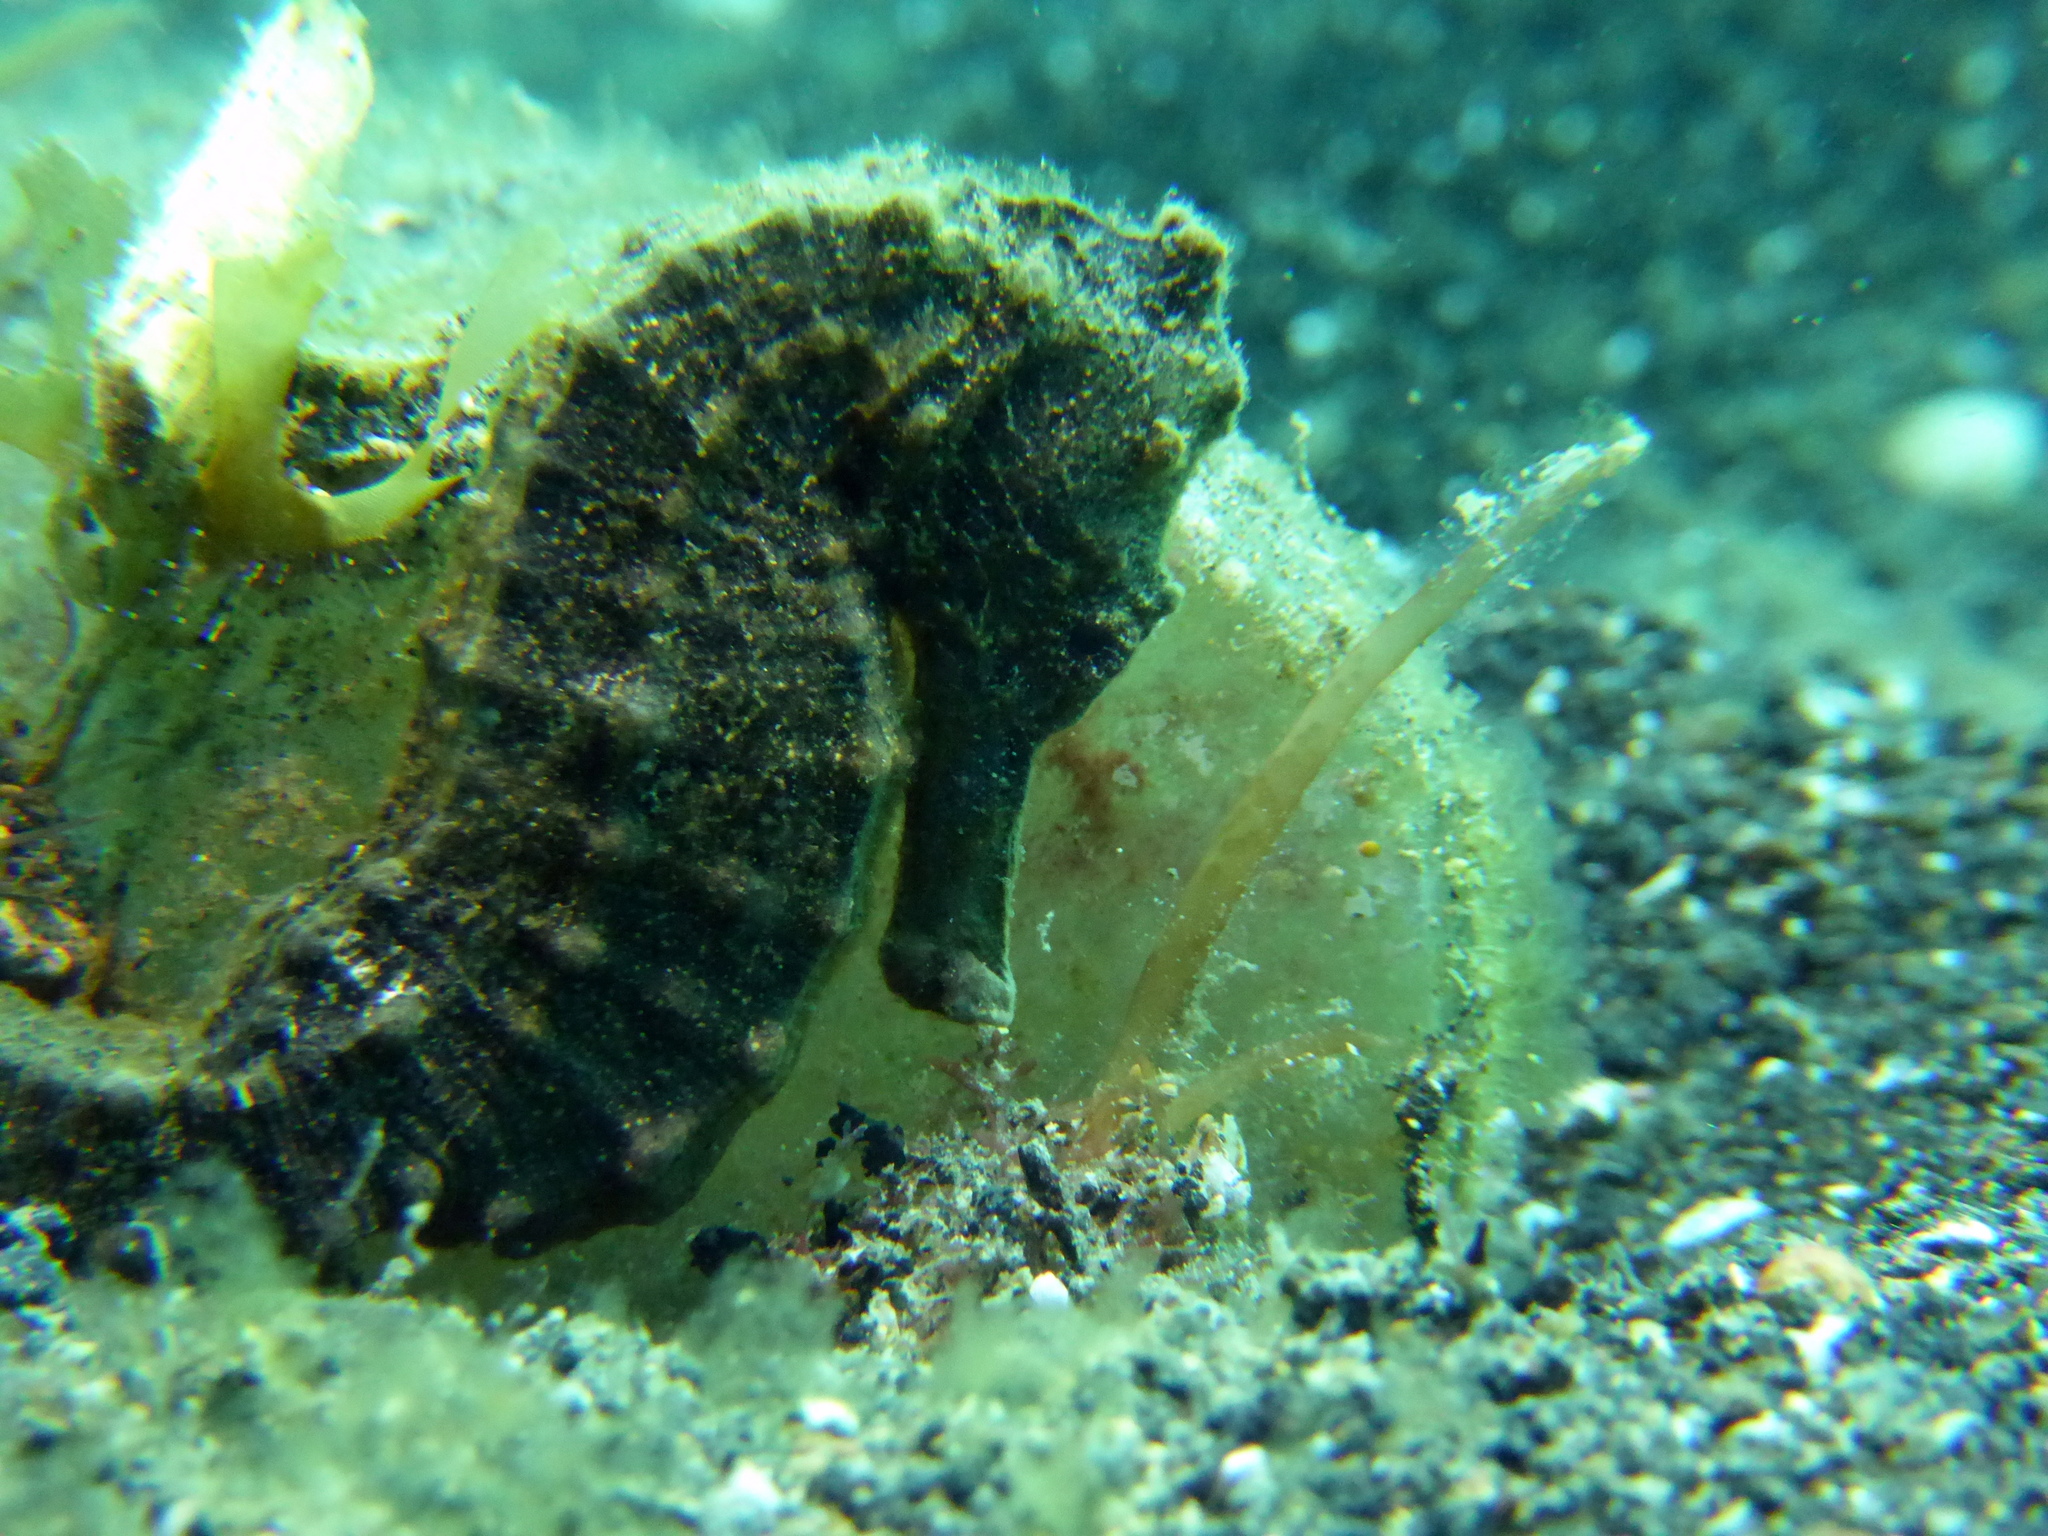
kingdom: Animalia
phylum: Chordata
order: Syngnathiformes
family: Syngnathidae
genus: Hippocampus
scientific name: Hippocampus kuda
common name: Spotted seahorse
